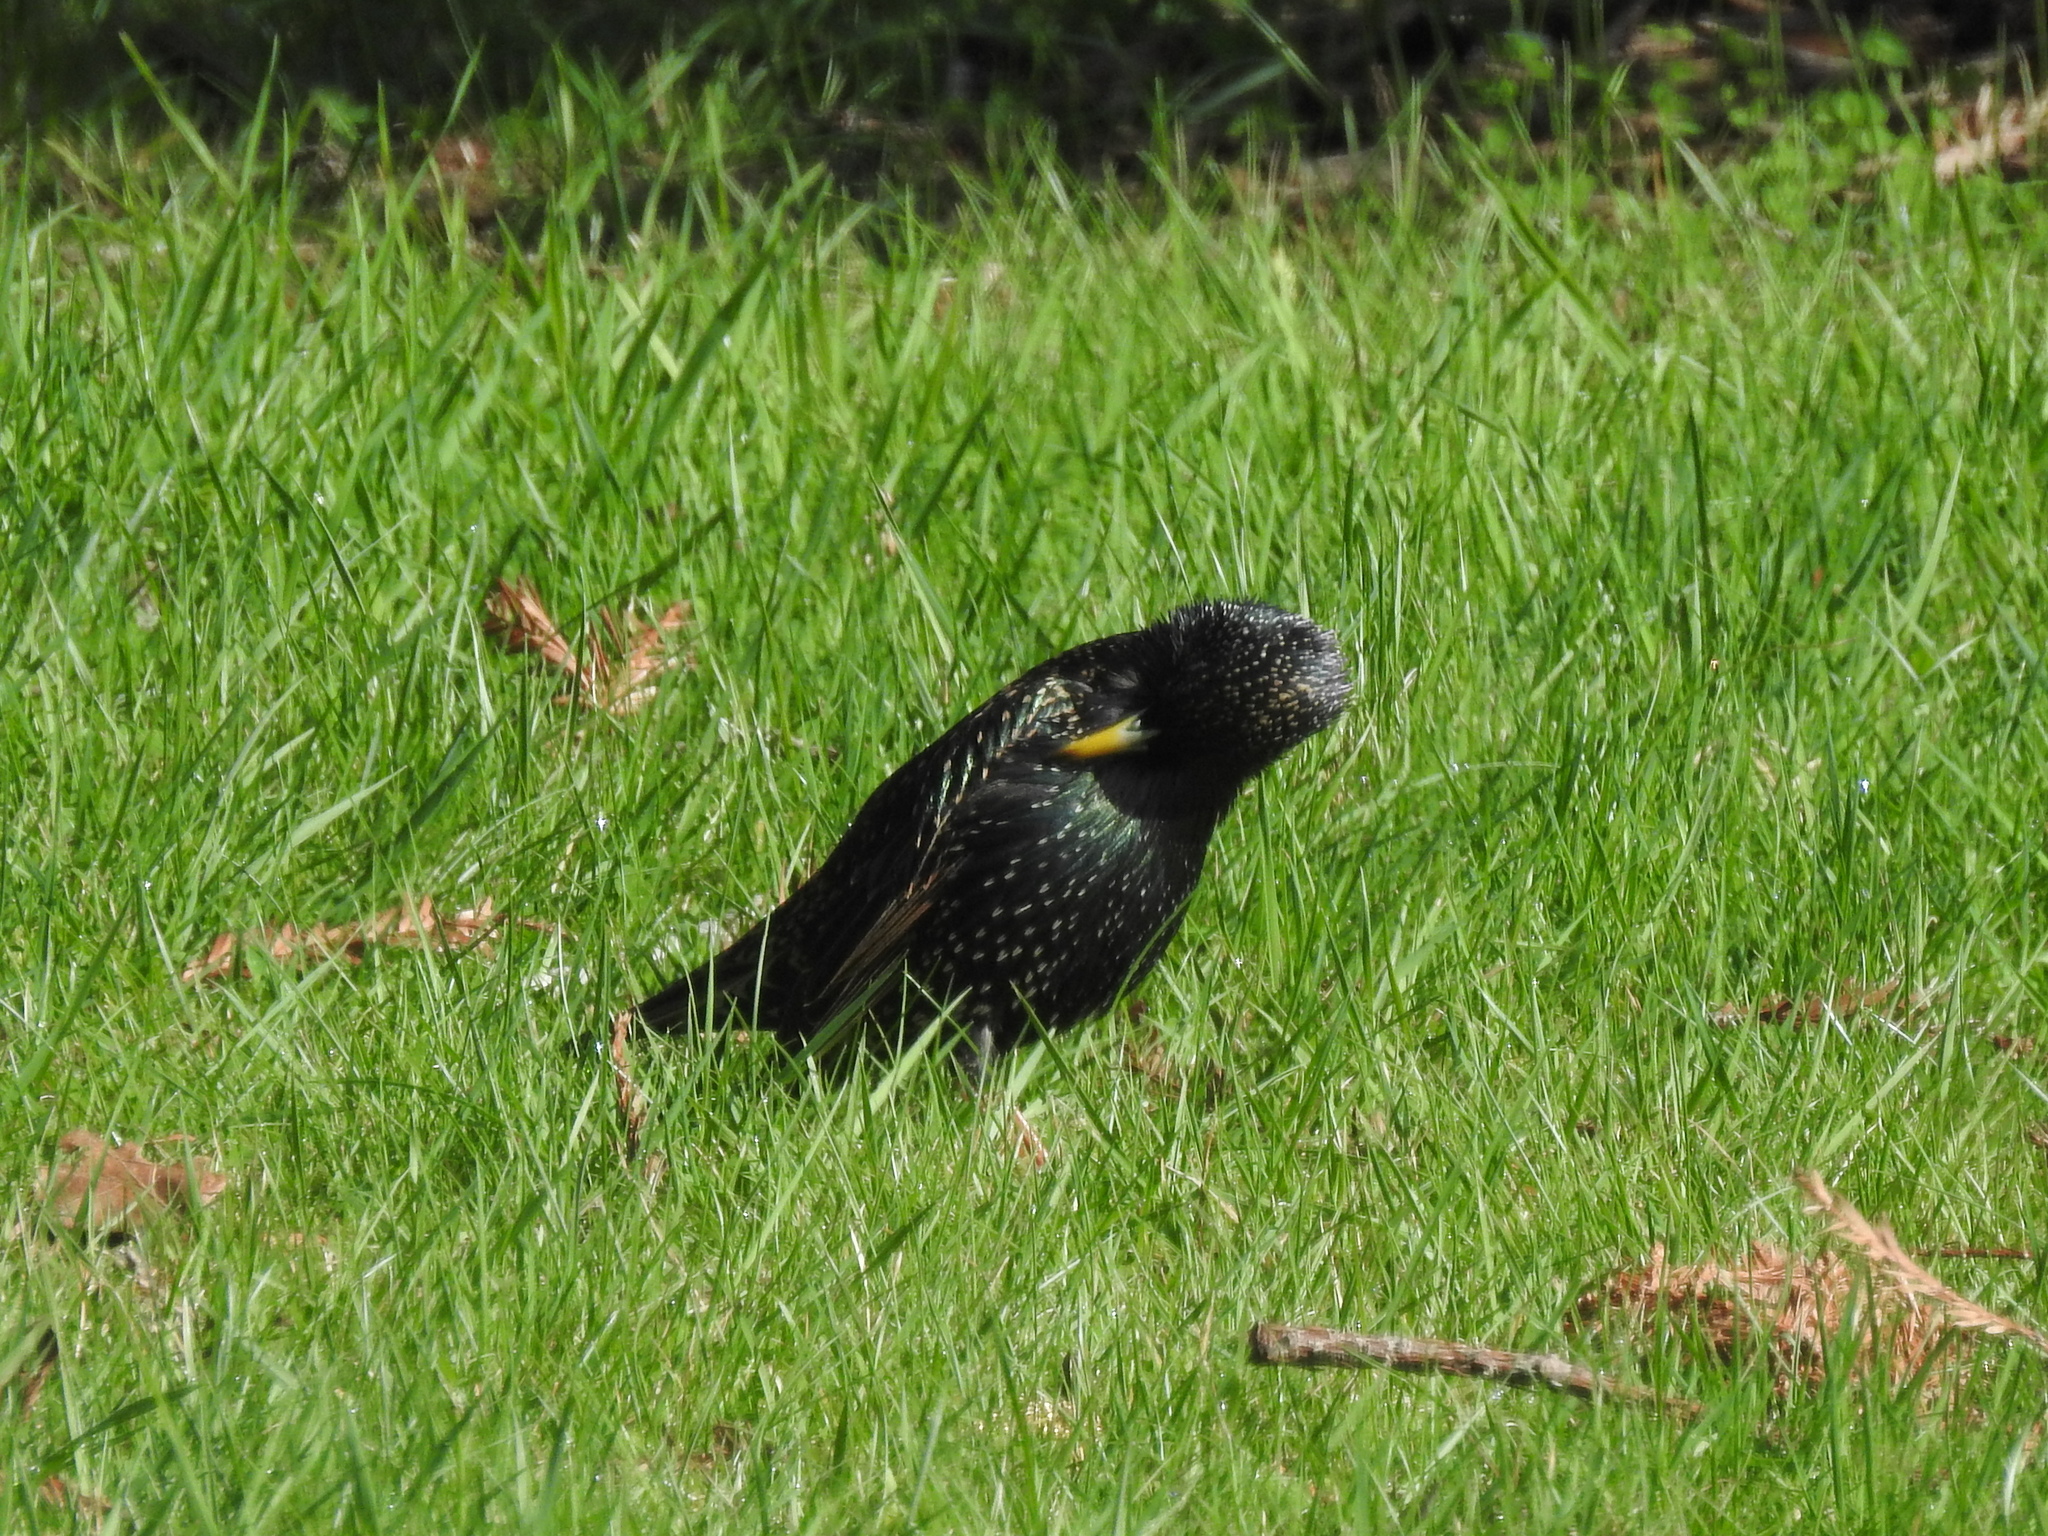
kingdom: Animalia
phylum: Chordata
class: Aves
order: Passeriformes
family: Sturnidae
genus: Sturnus
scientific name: Sturnus vulgaris
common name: Common starling
